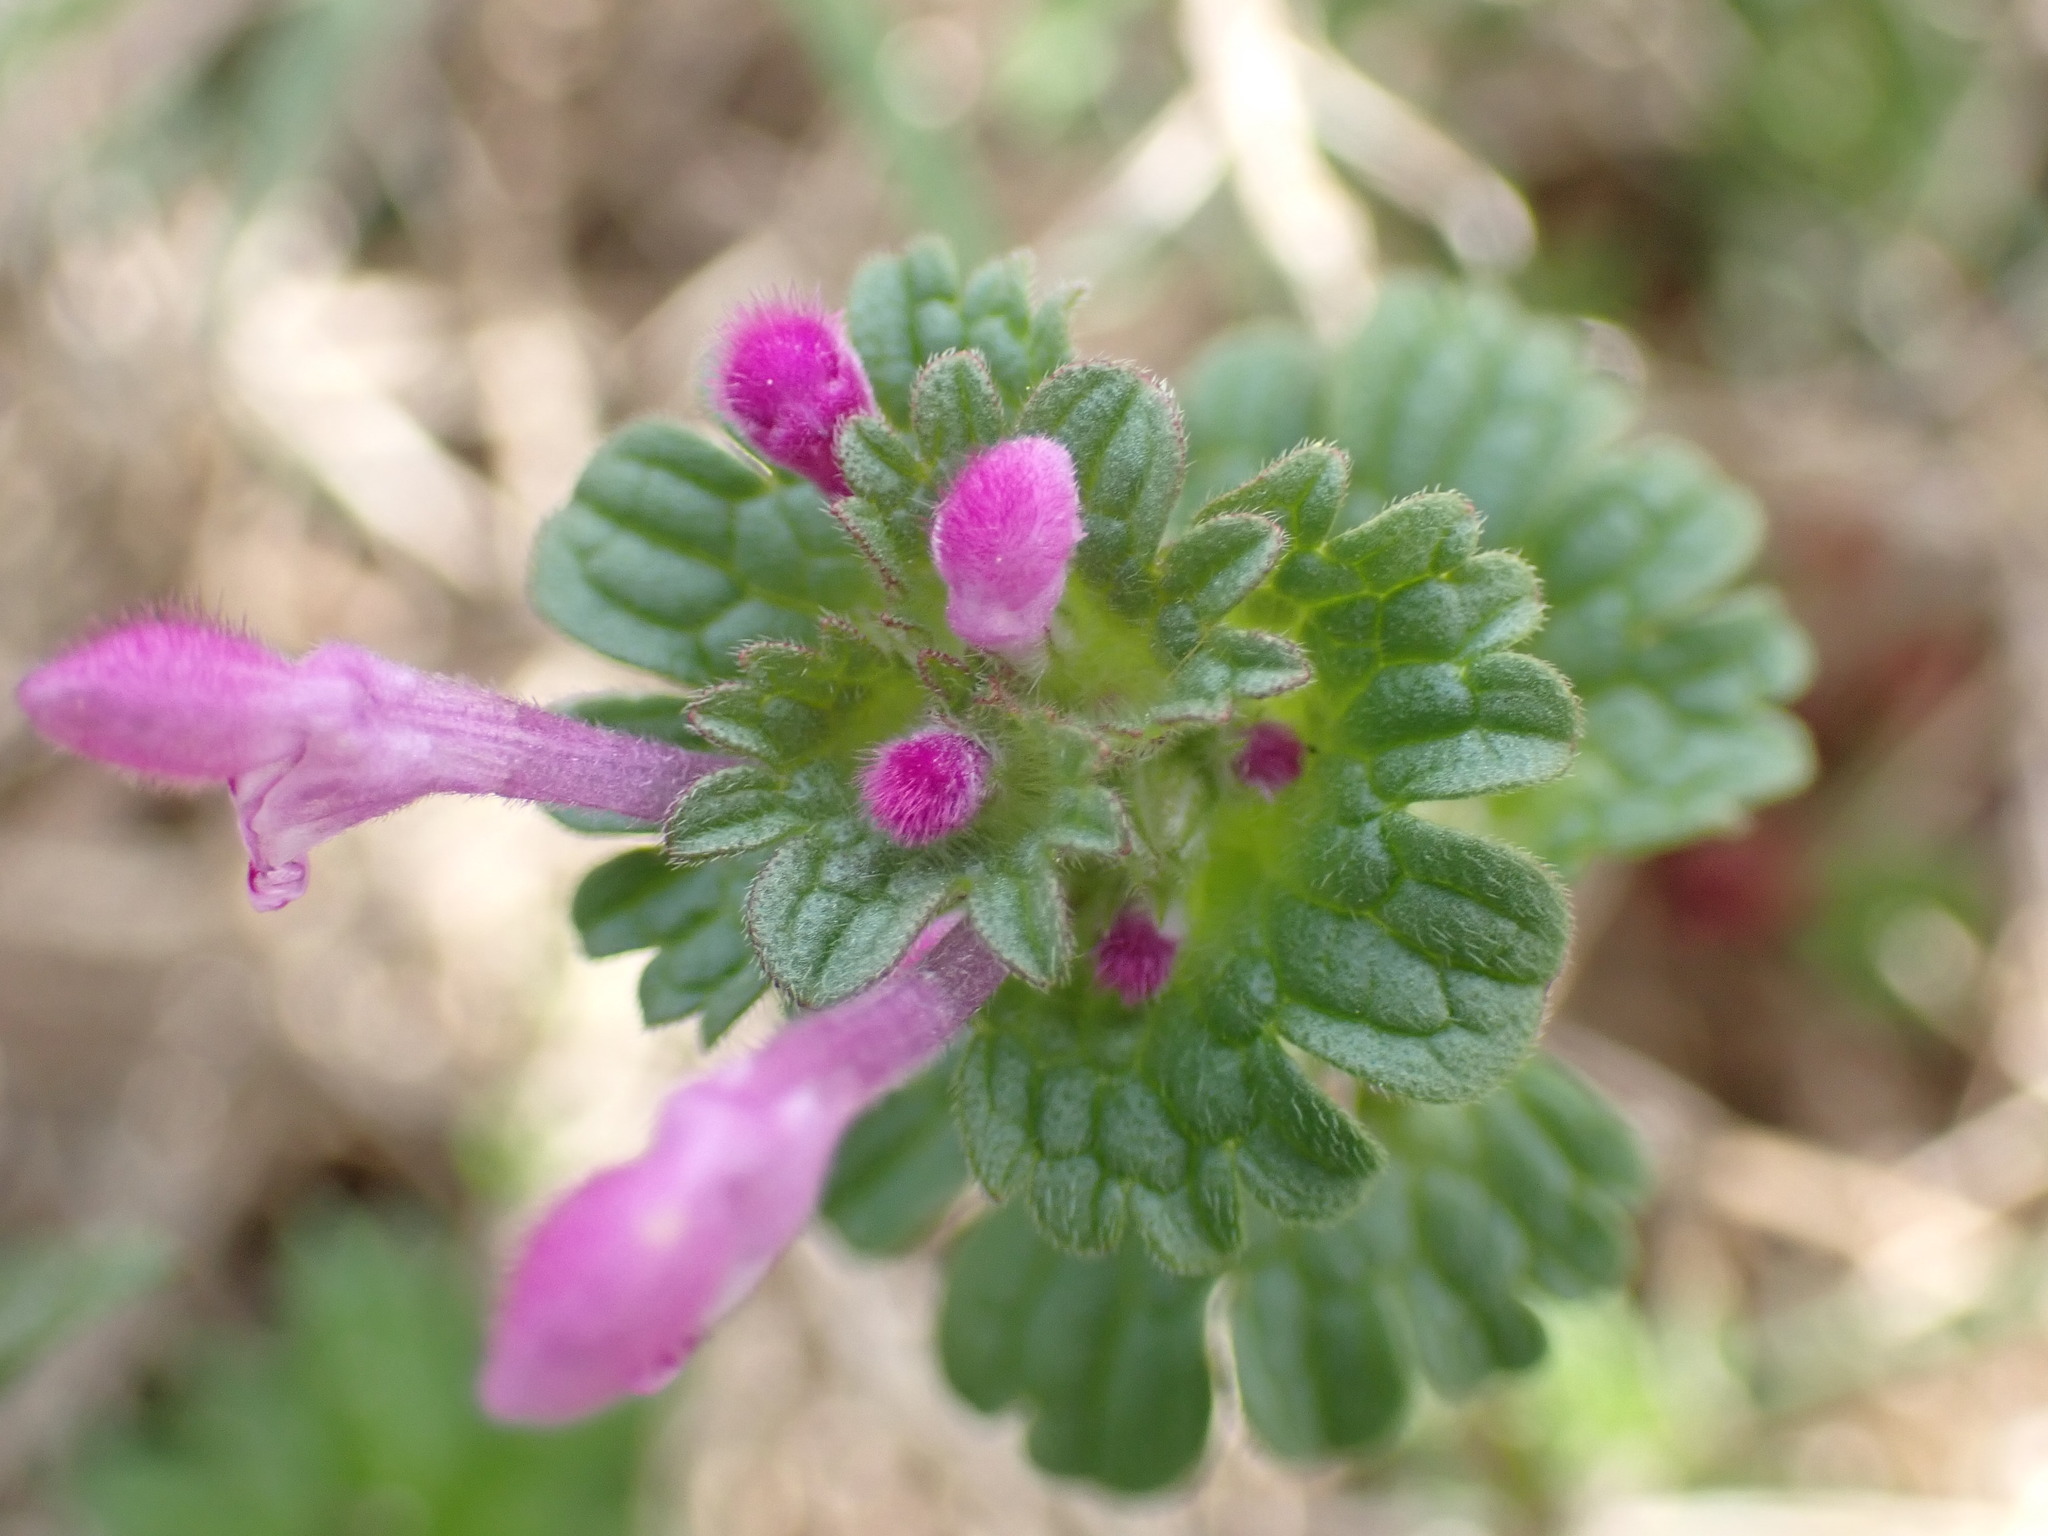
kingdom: Plantae
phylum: Tracheophyta
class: Magnoliopsida
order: Lamiales
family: Lamiaceae
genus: Lamium
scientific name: Lamium amplexicaule
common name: Henbit dead-nettle
